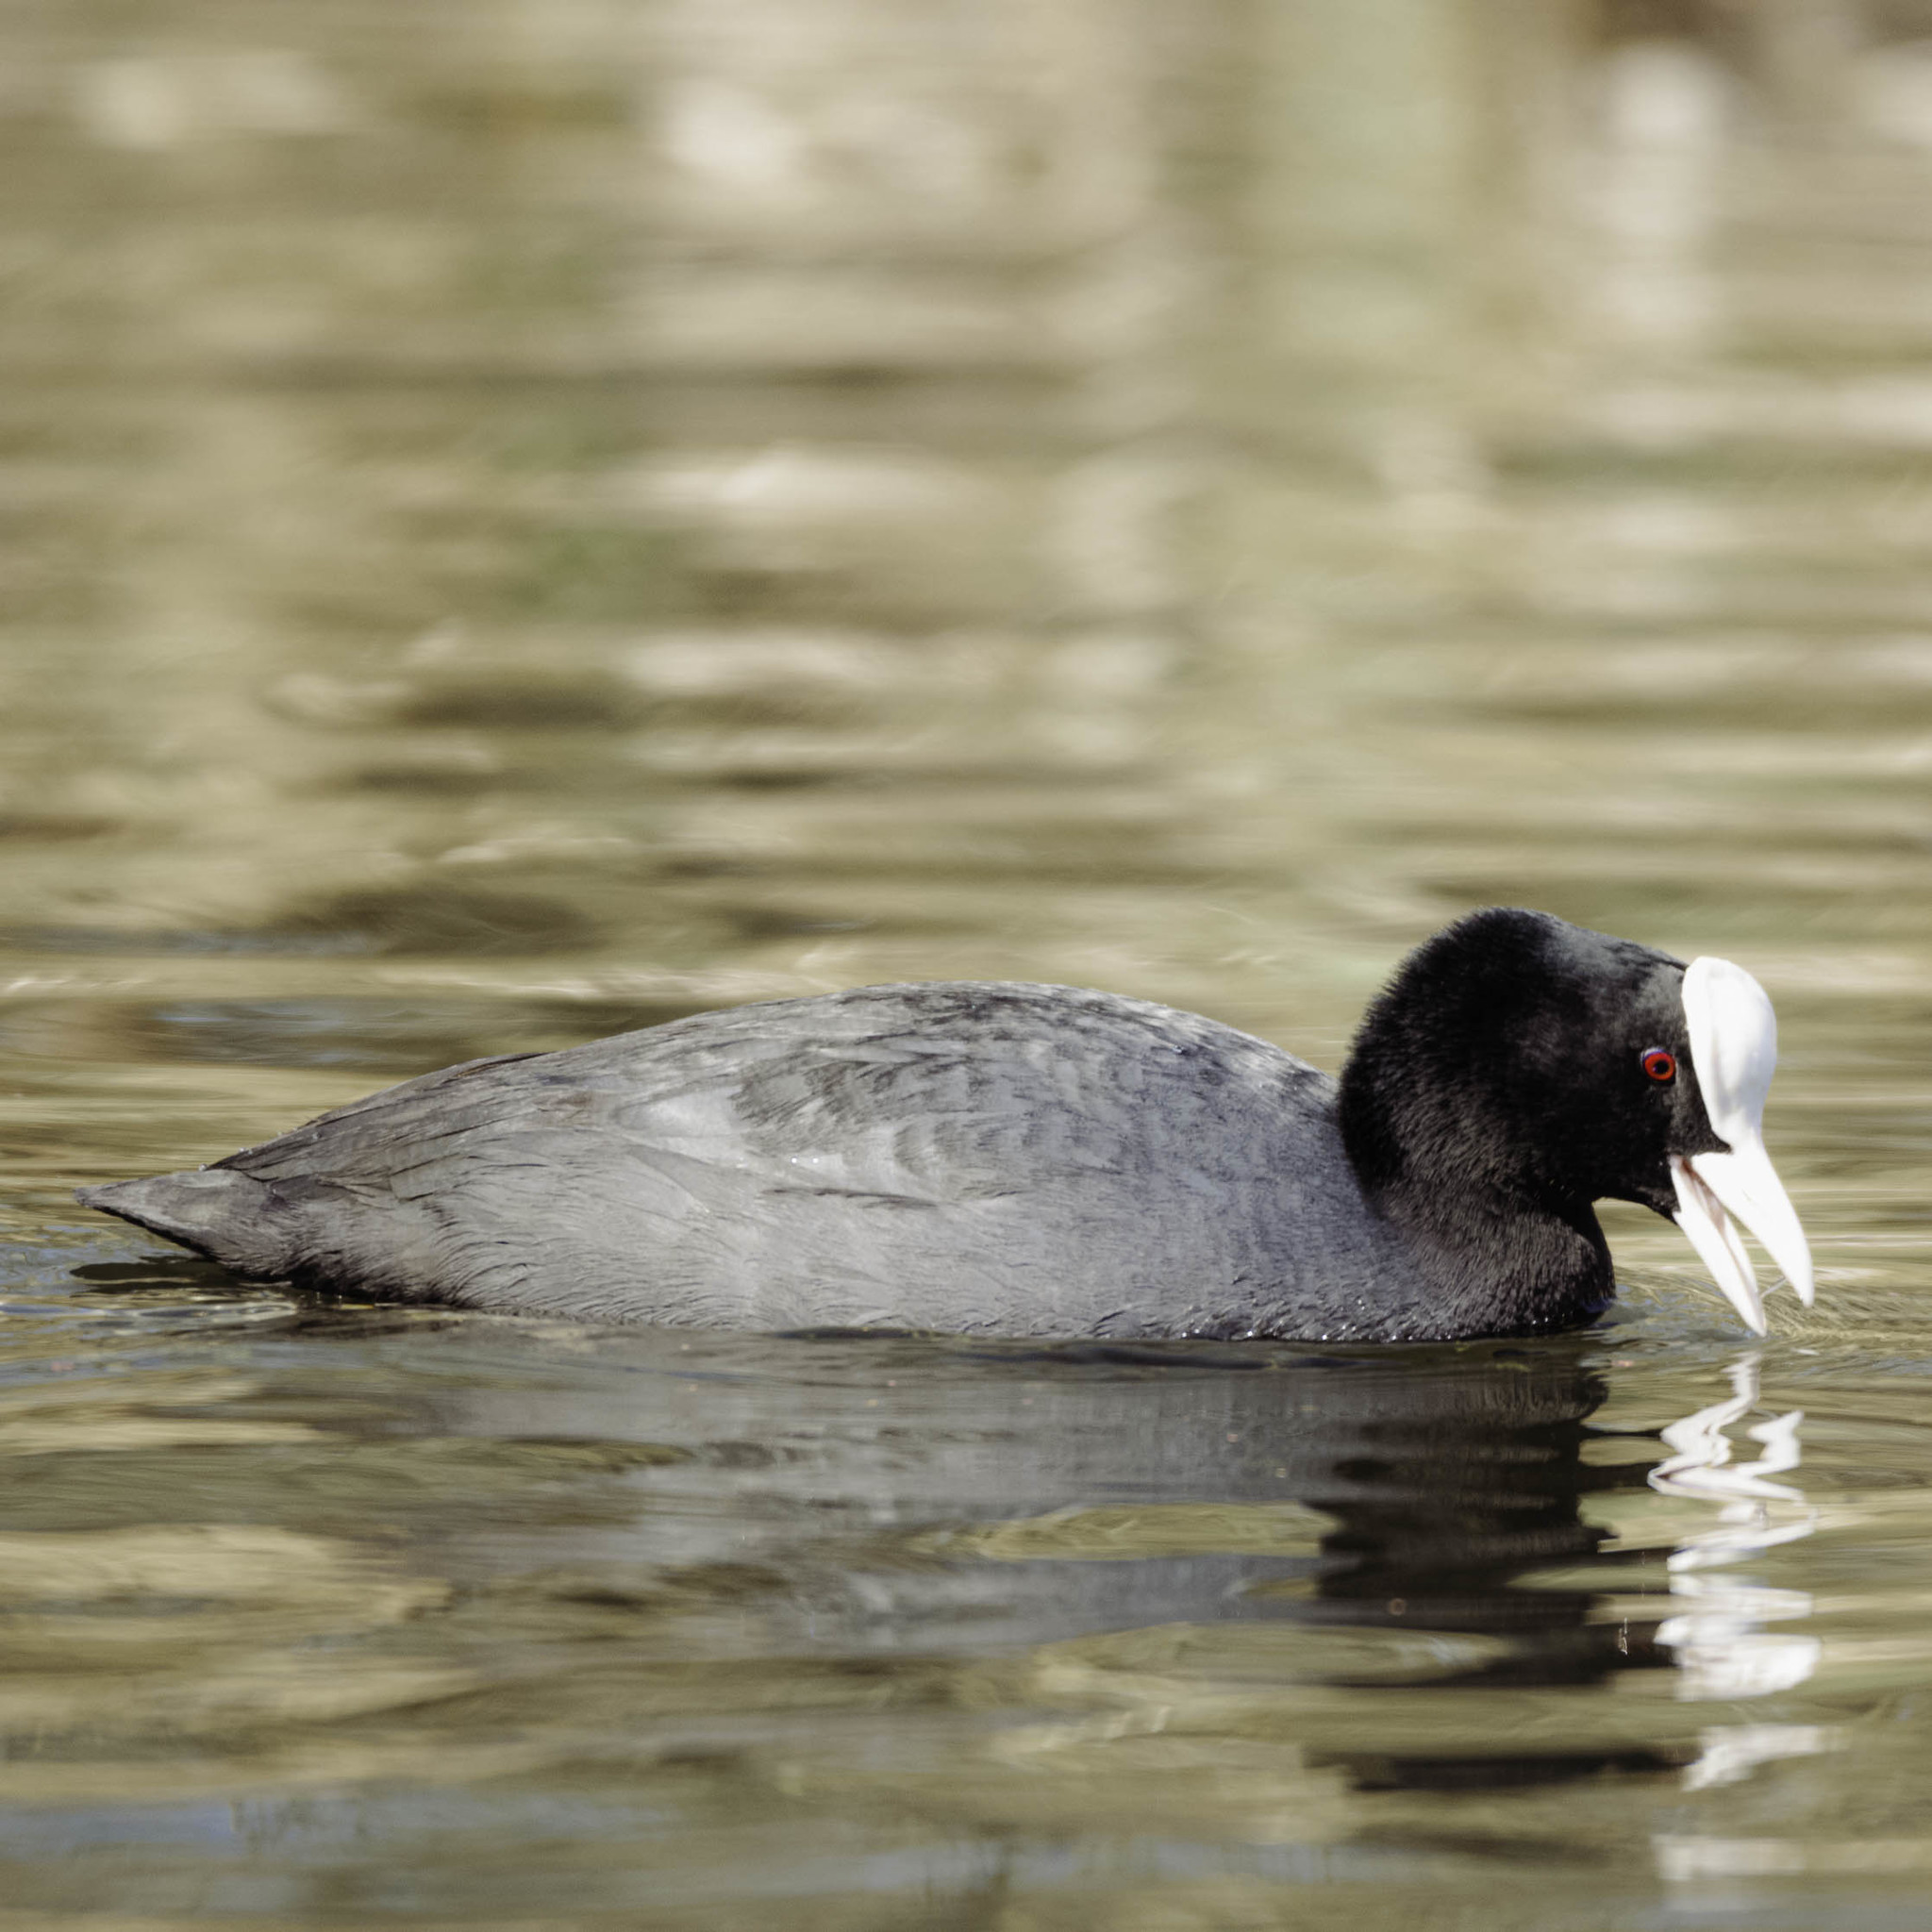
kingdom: Animalia
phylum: Chordata
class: Aves
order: Gruiformes
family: Rallidae
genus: Fulica
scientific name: Fulica atra
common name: Eurasian coot
